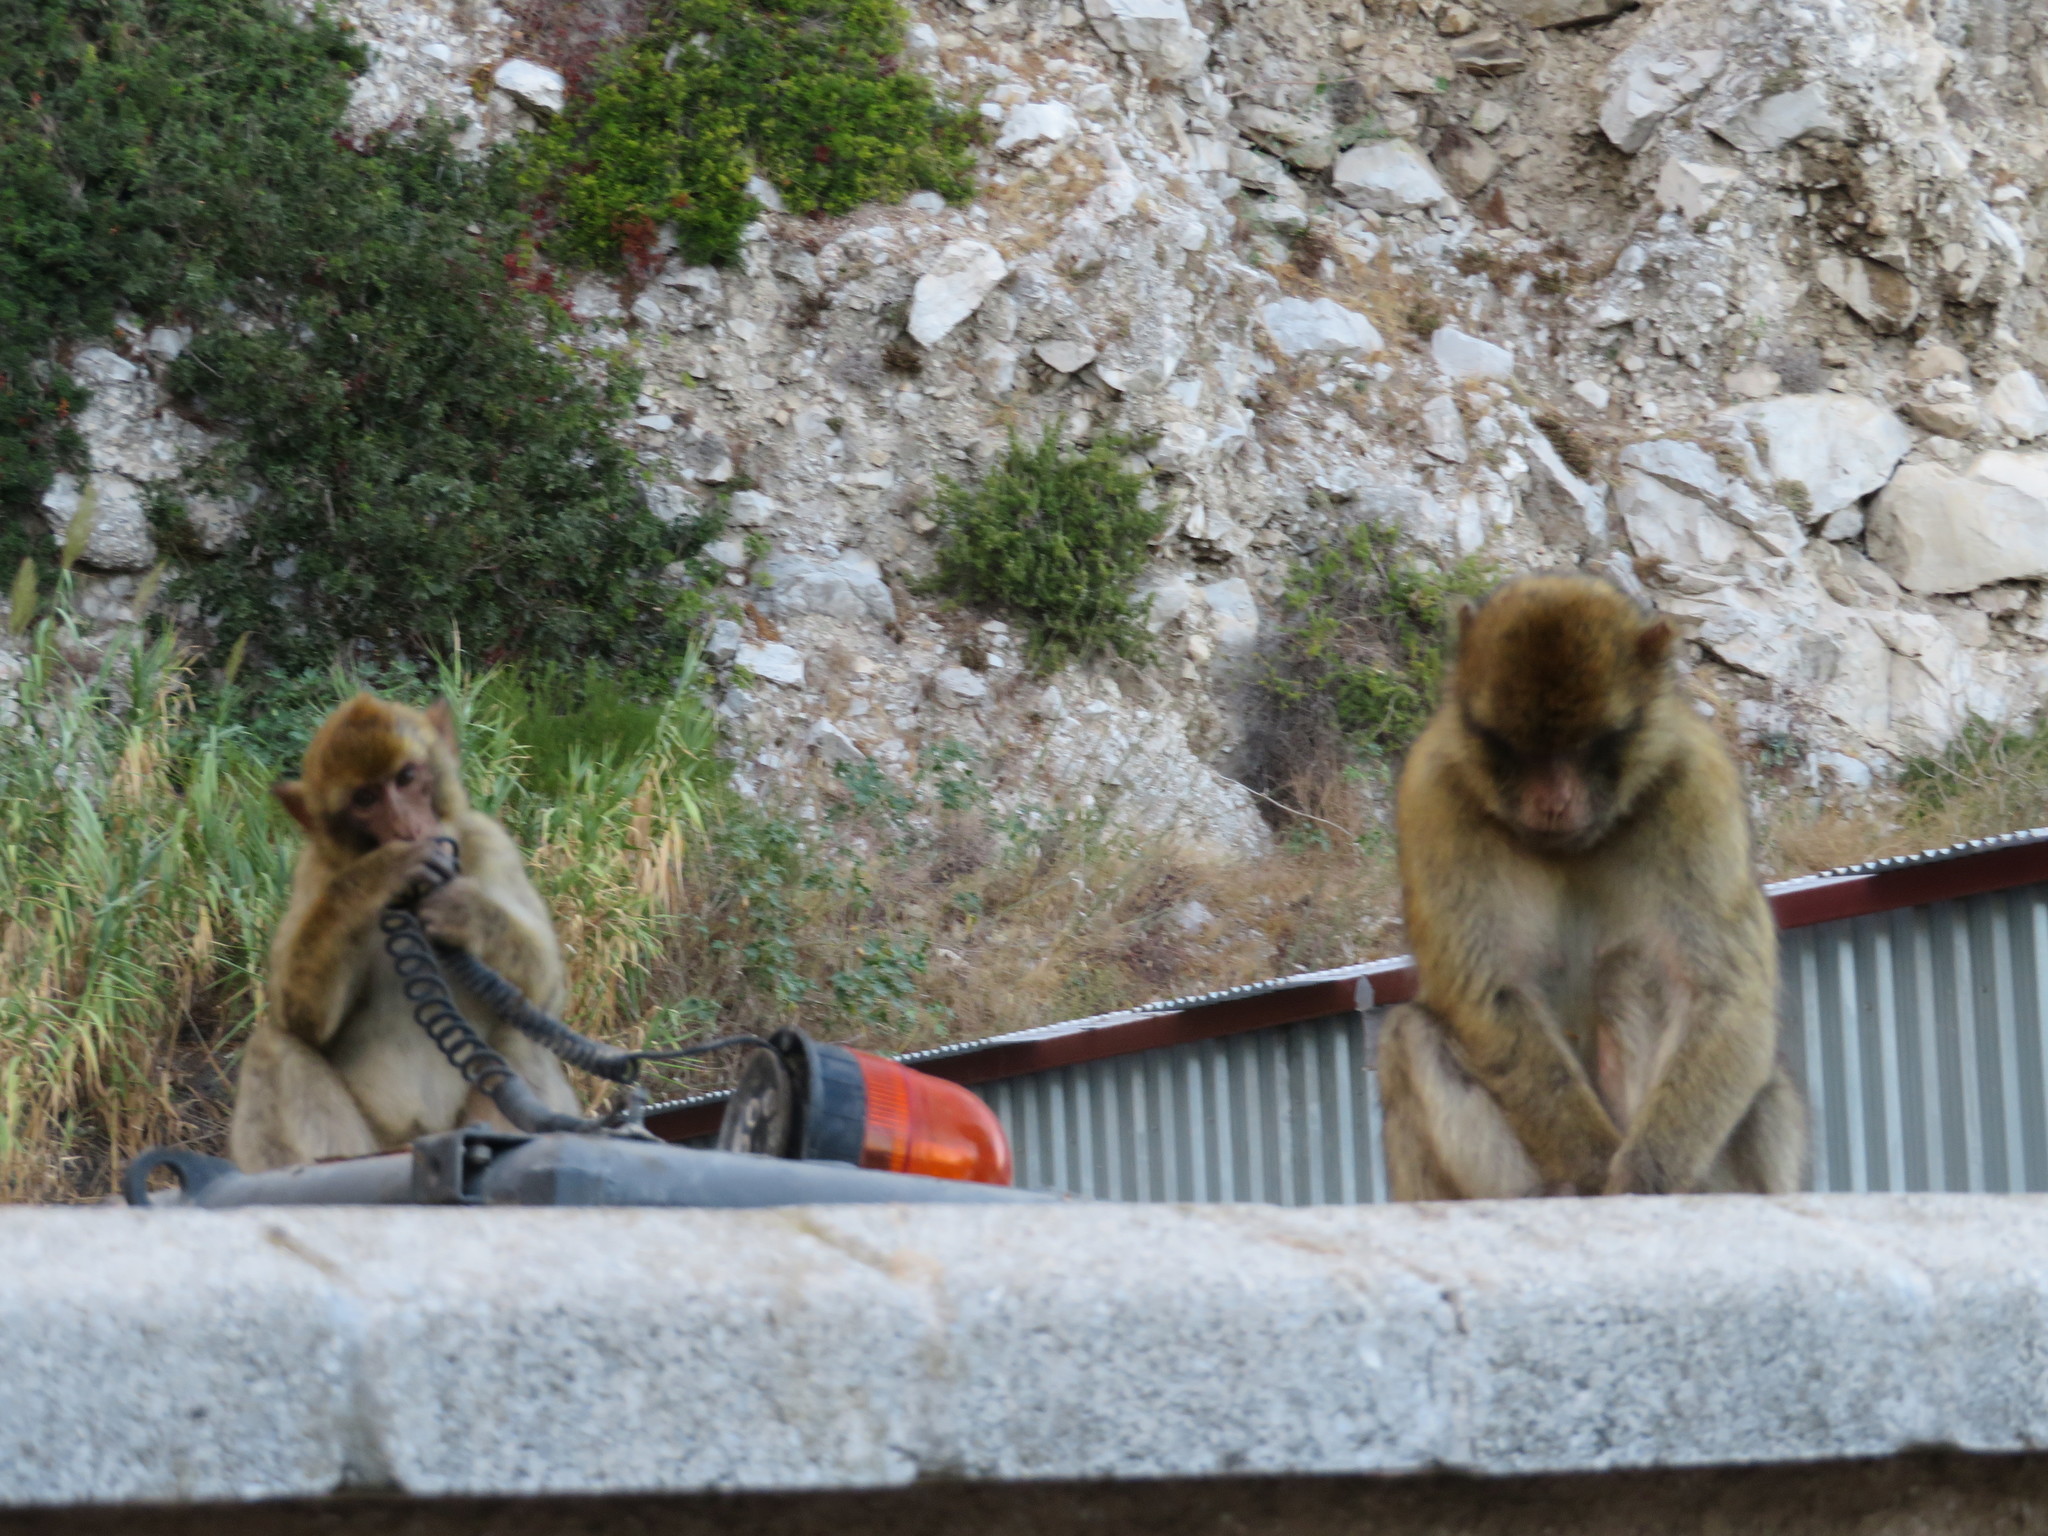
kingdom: Animalia
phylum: Chordata
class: Mammalia
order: Primates
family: Cercopithecidae
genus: Macaca
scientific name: Macaca sylvanus
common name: Barbary macaque
